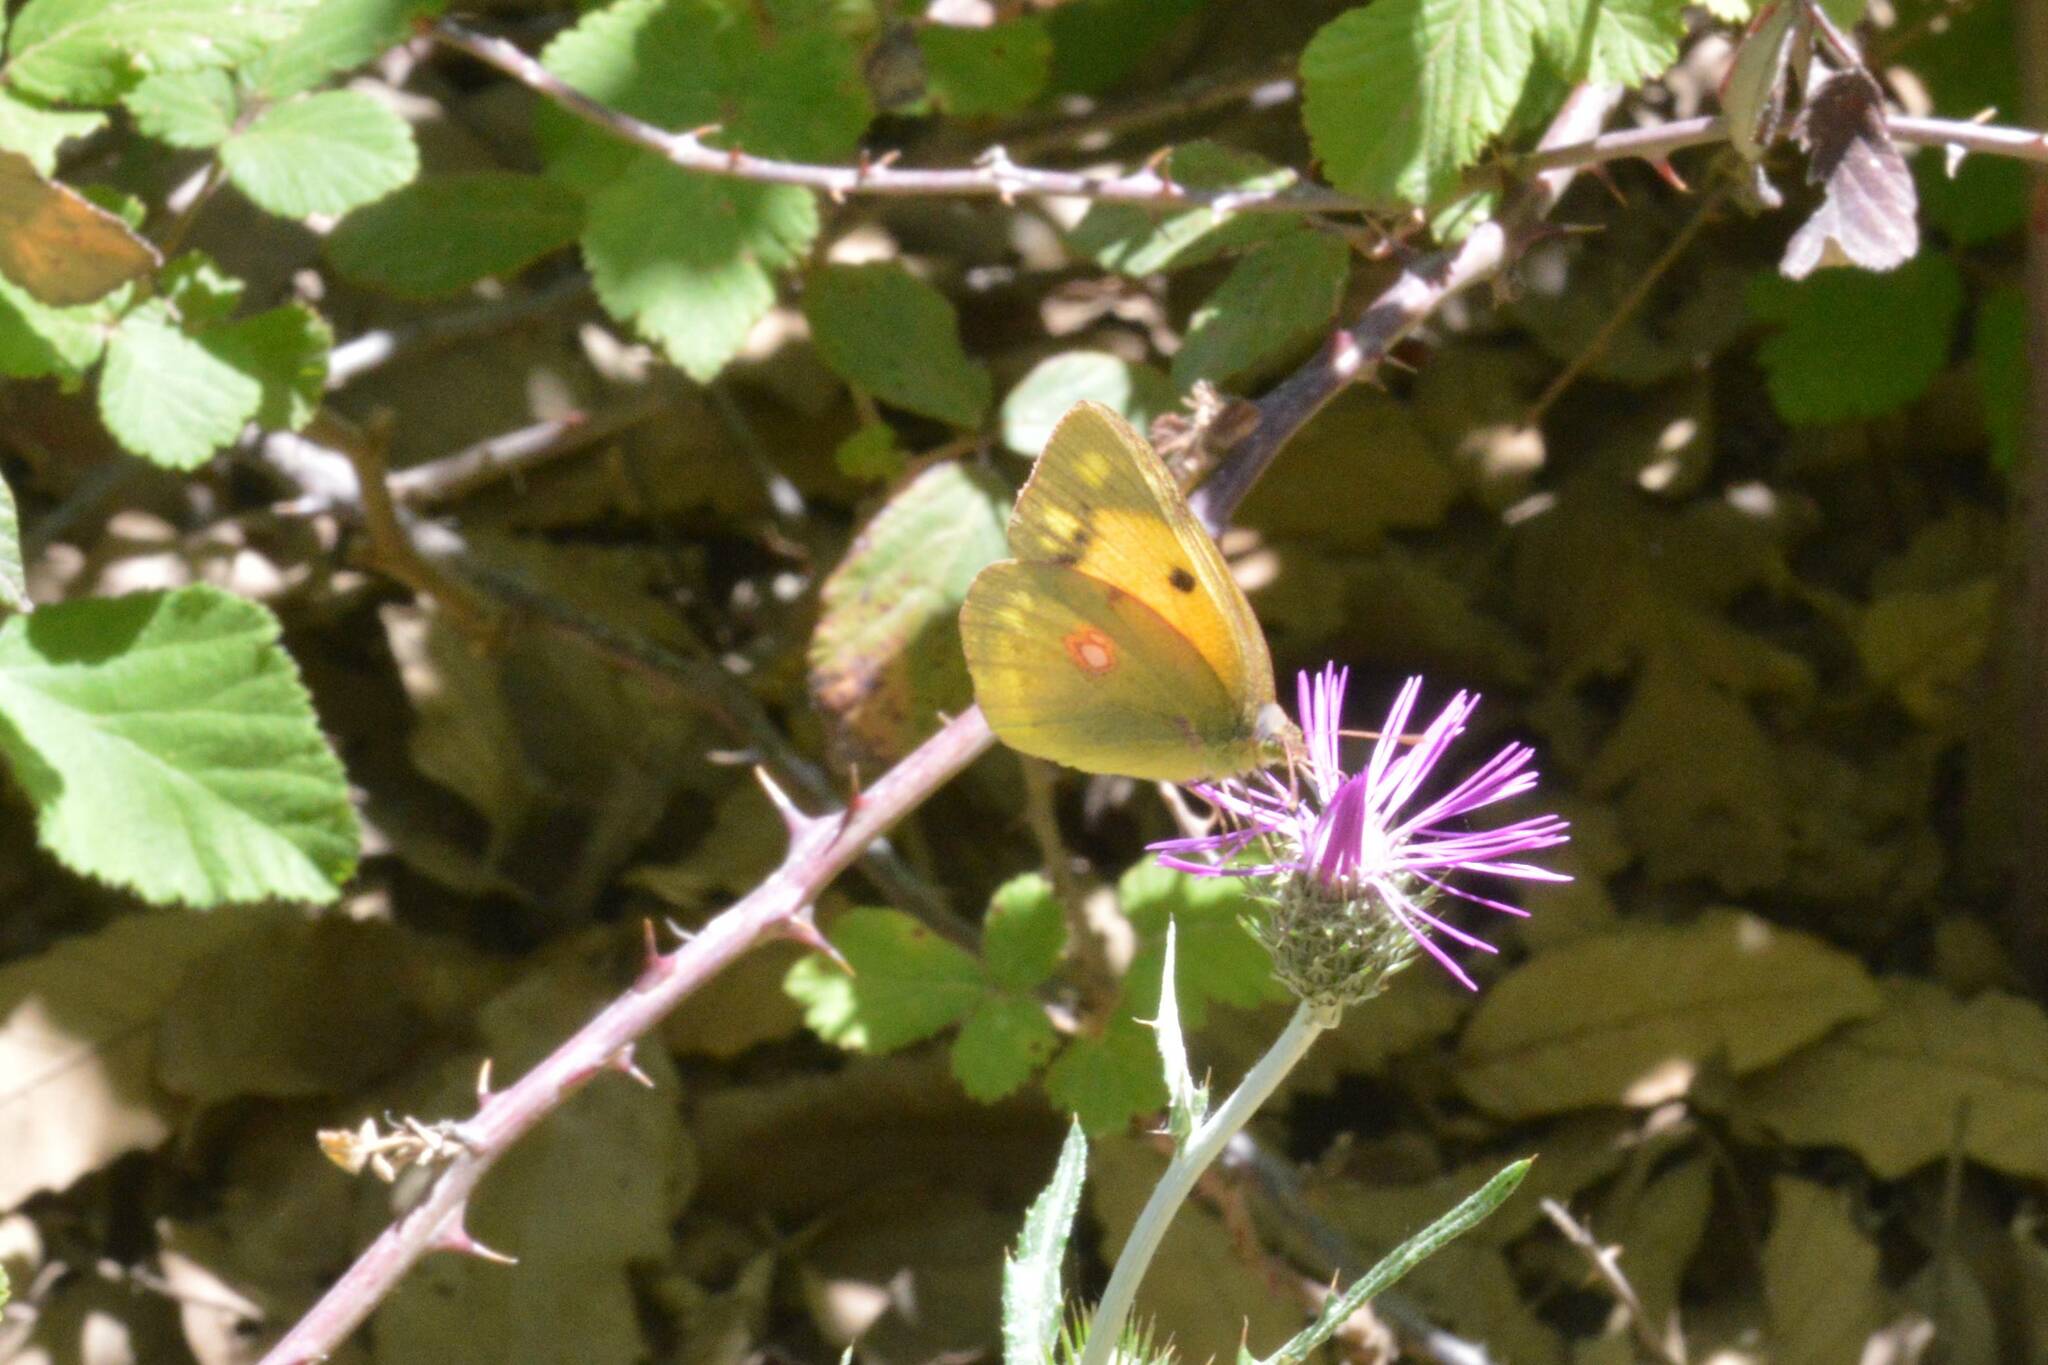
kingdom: Animalia
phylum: Arthropoda
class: Insecta
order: Lepidoptera
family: Pieridae
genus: Colias
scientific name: Colias croceus
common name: Clouded yellow
